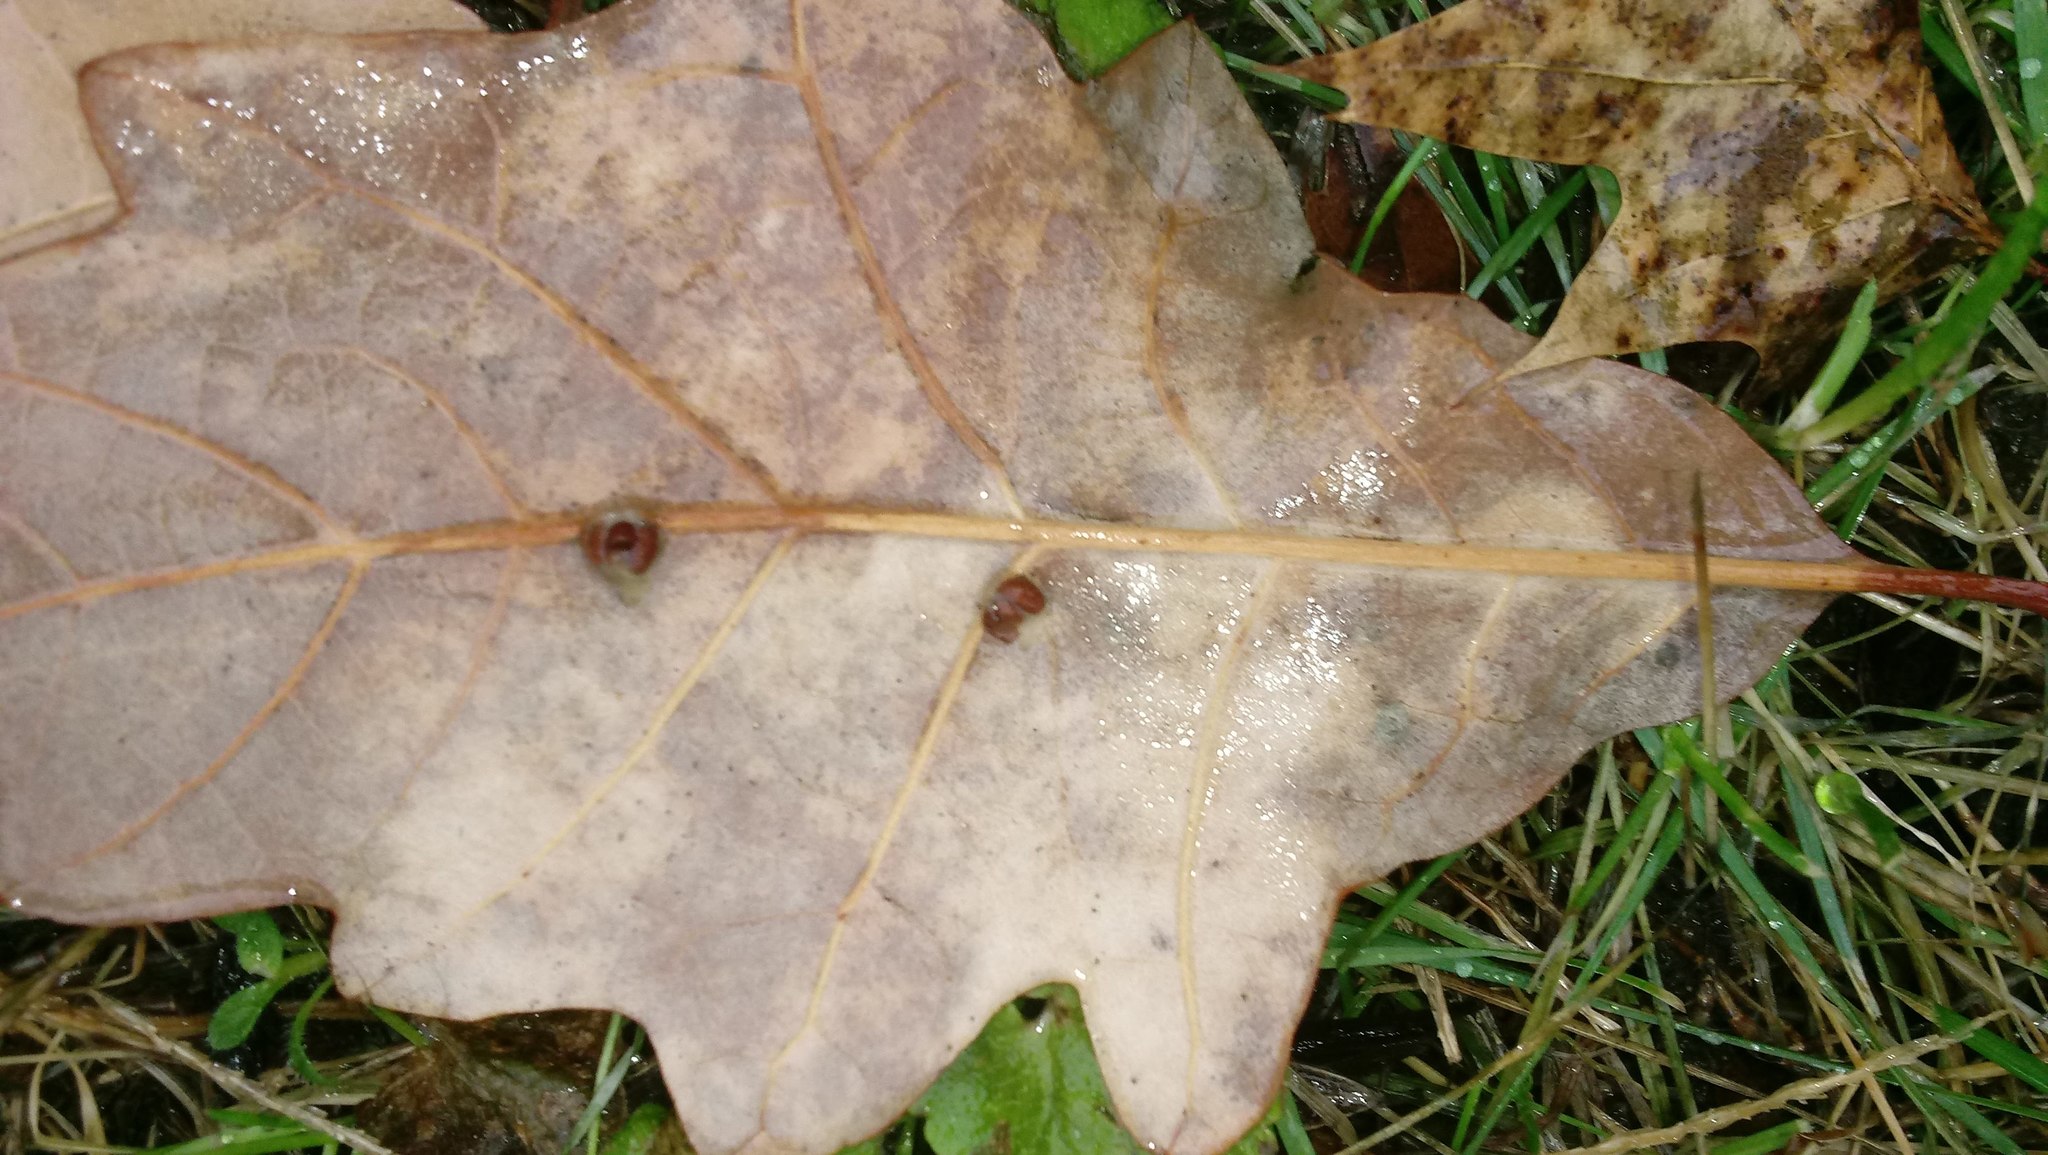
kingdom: Animalia
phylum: Arthropoda
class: Insecta
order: Hymenoptera
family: Cynipidae
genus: Andricus
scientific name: Andricus Druon ignotum
